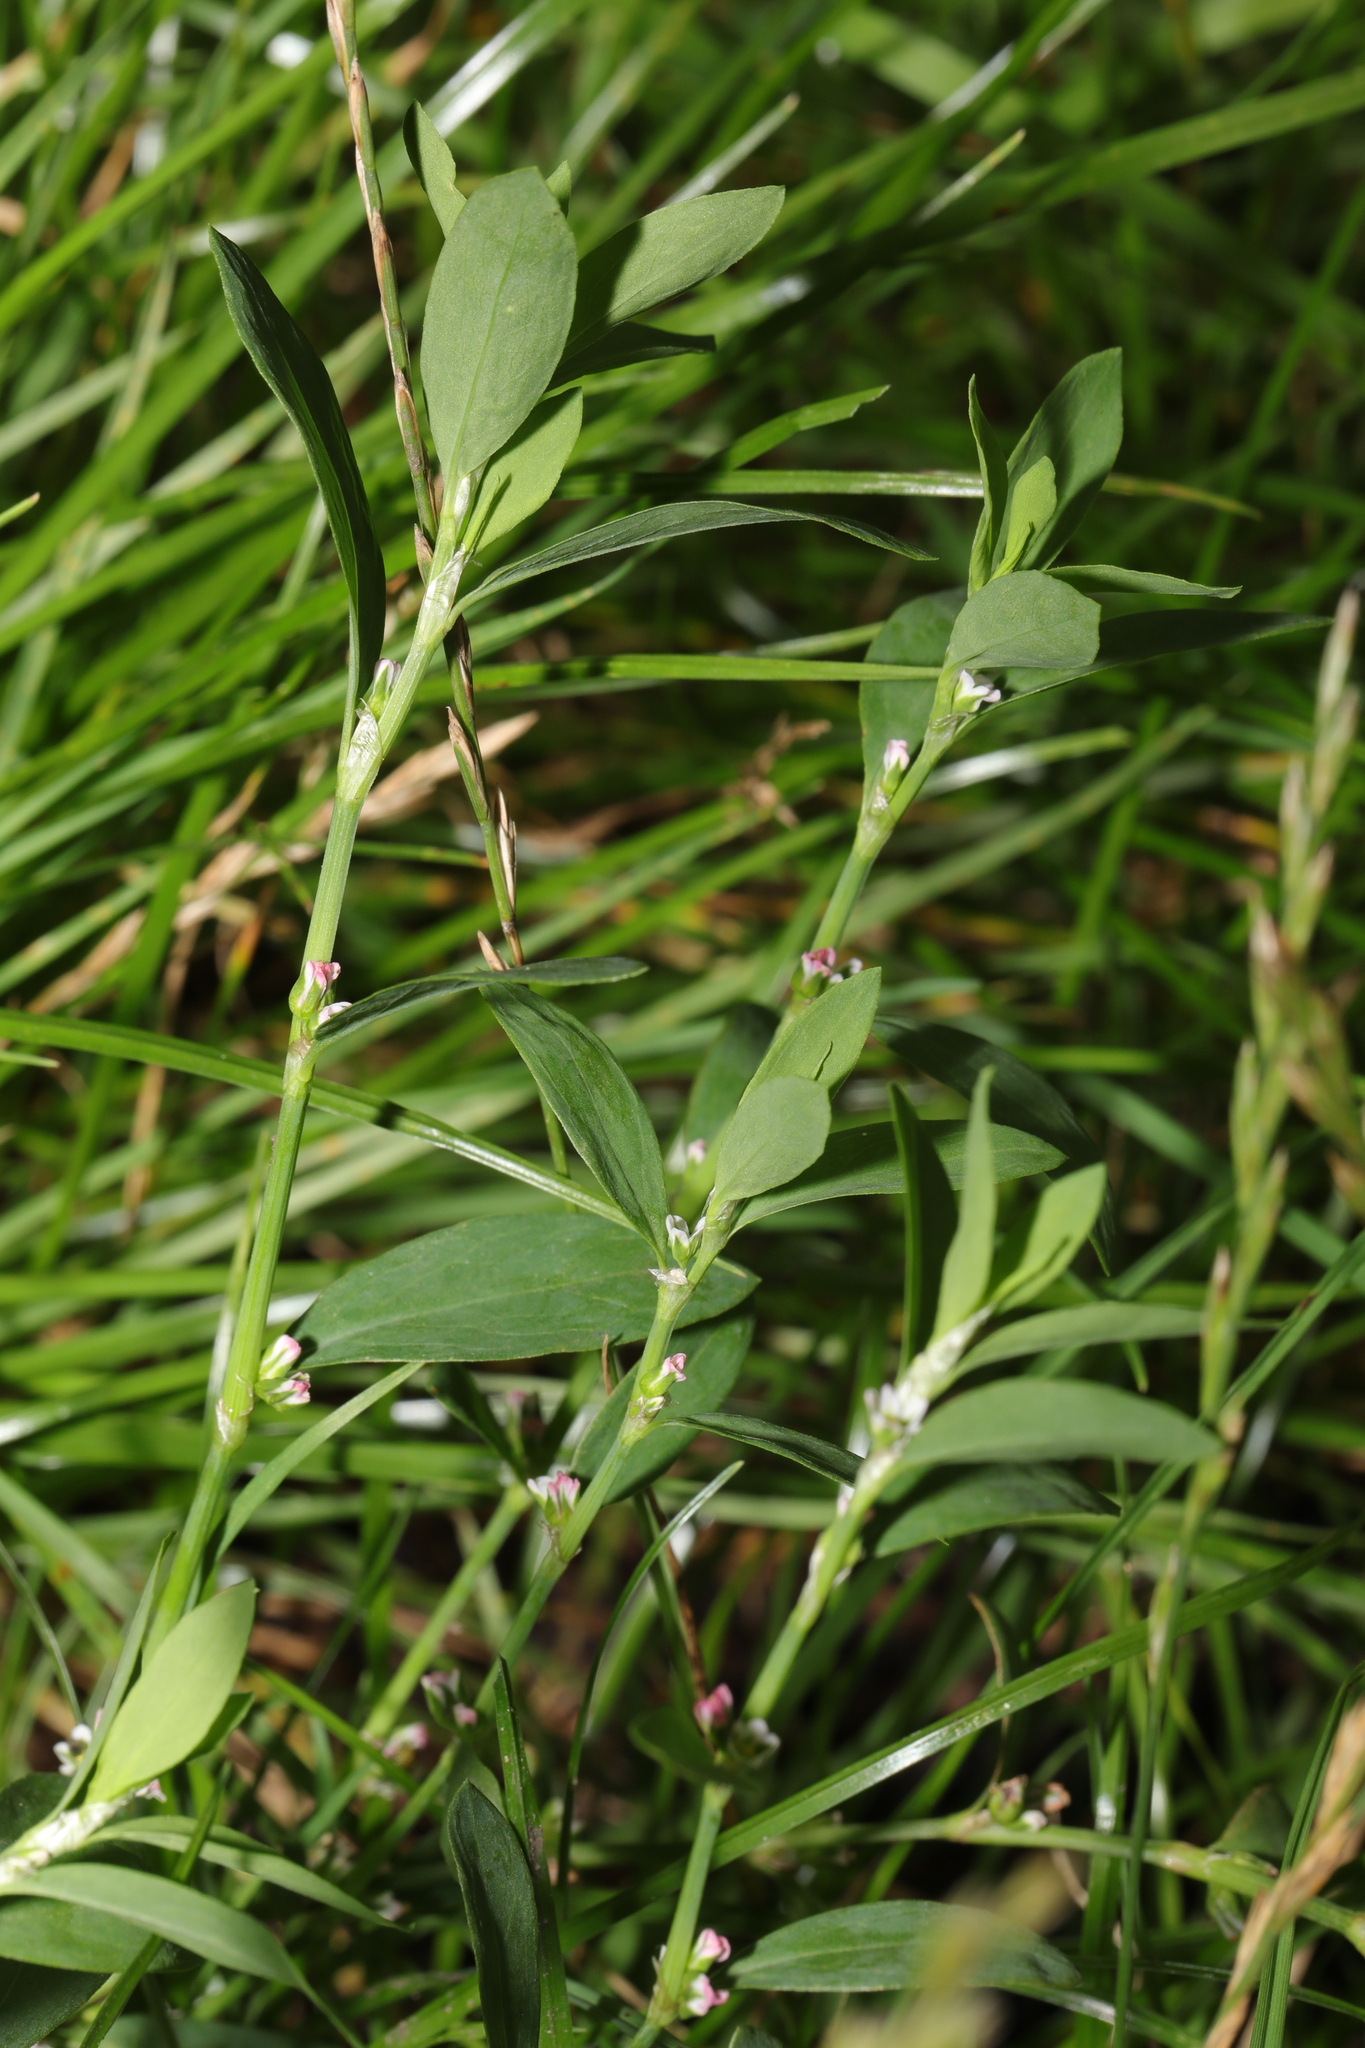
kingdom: Plantae
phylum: Tracheophyta
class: Magnoliopsida
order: Caryophyllales
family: Polygonaceae
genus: Polygonum
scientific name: Polygonum aviculare
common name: Prostrate knotweed
